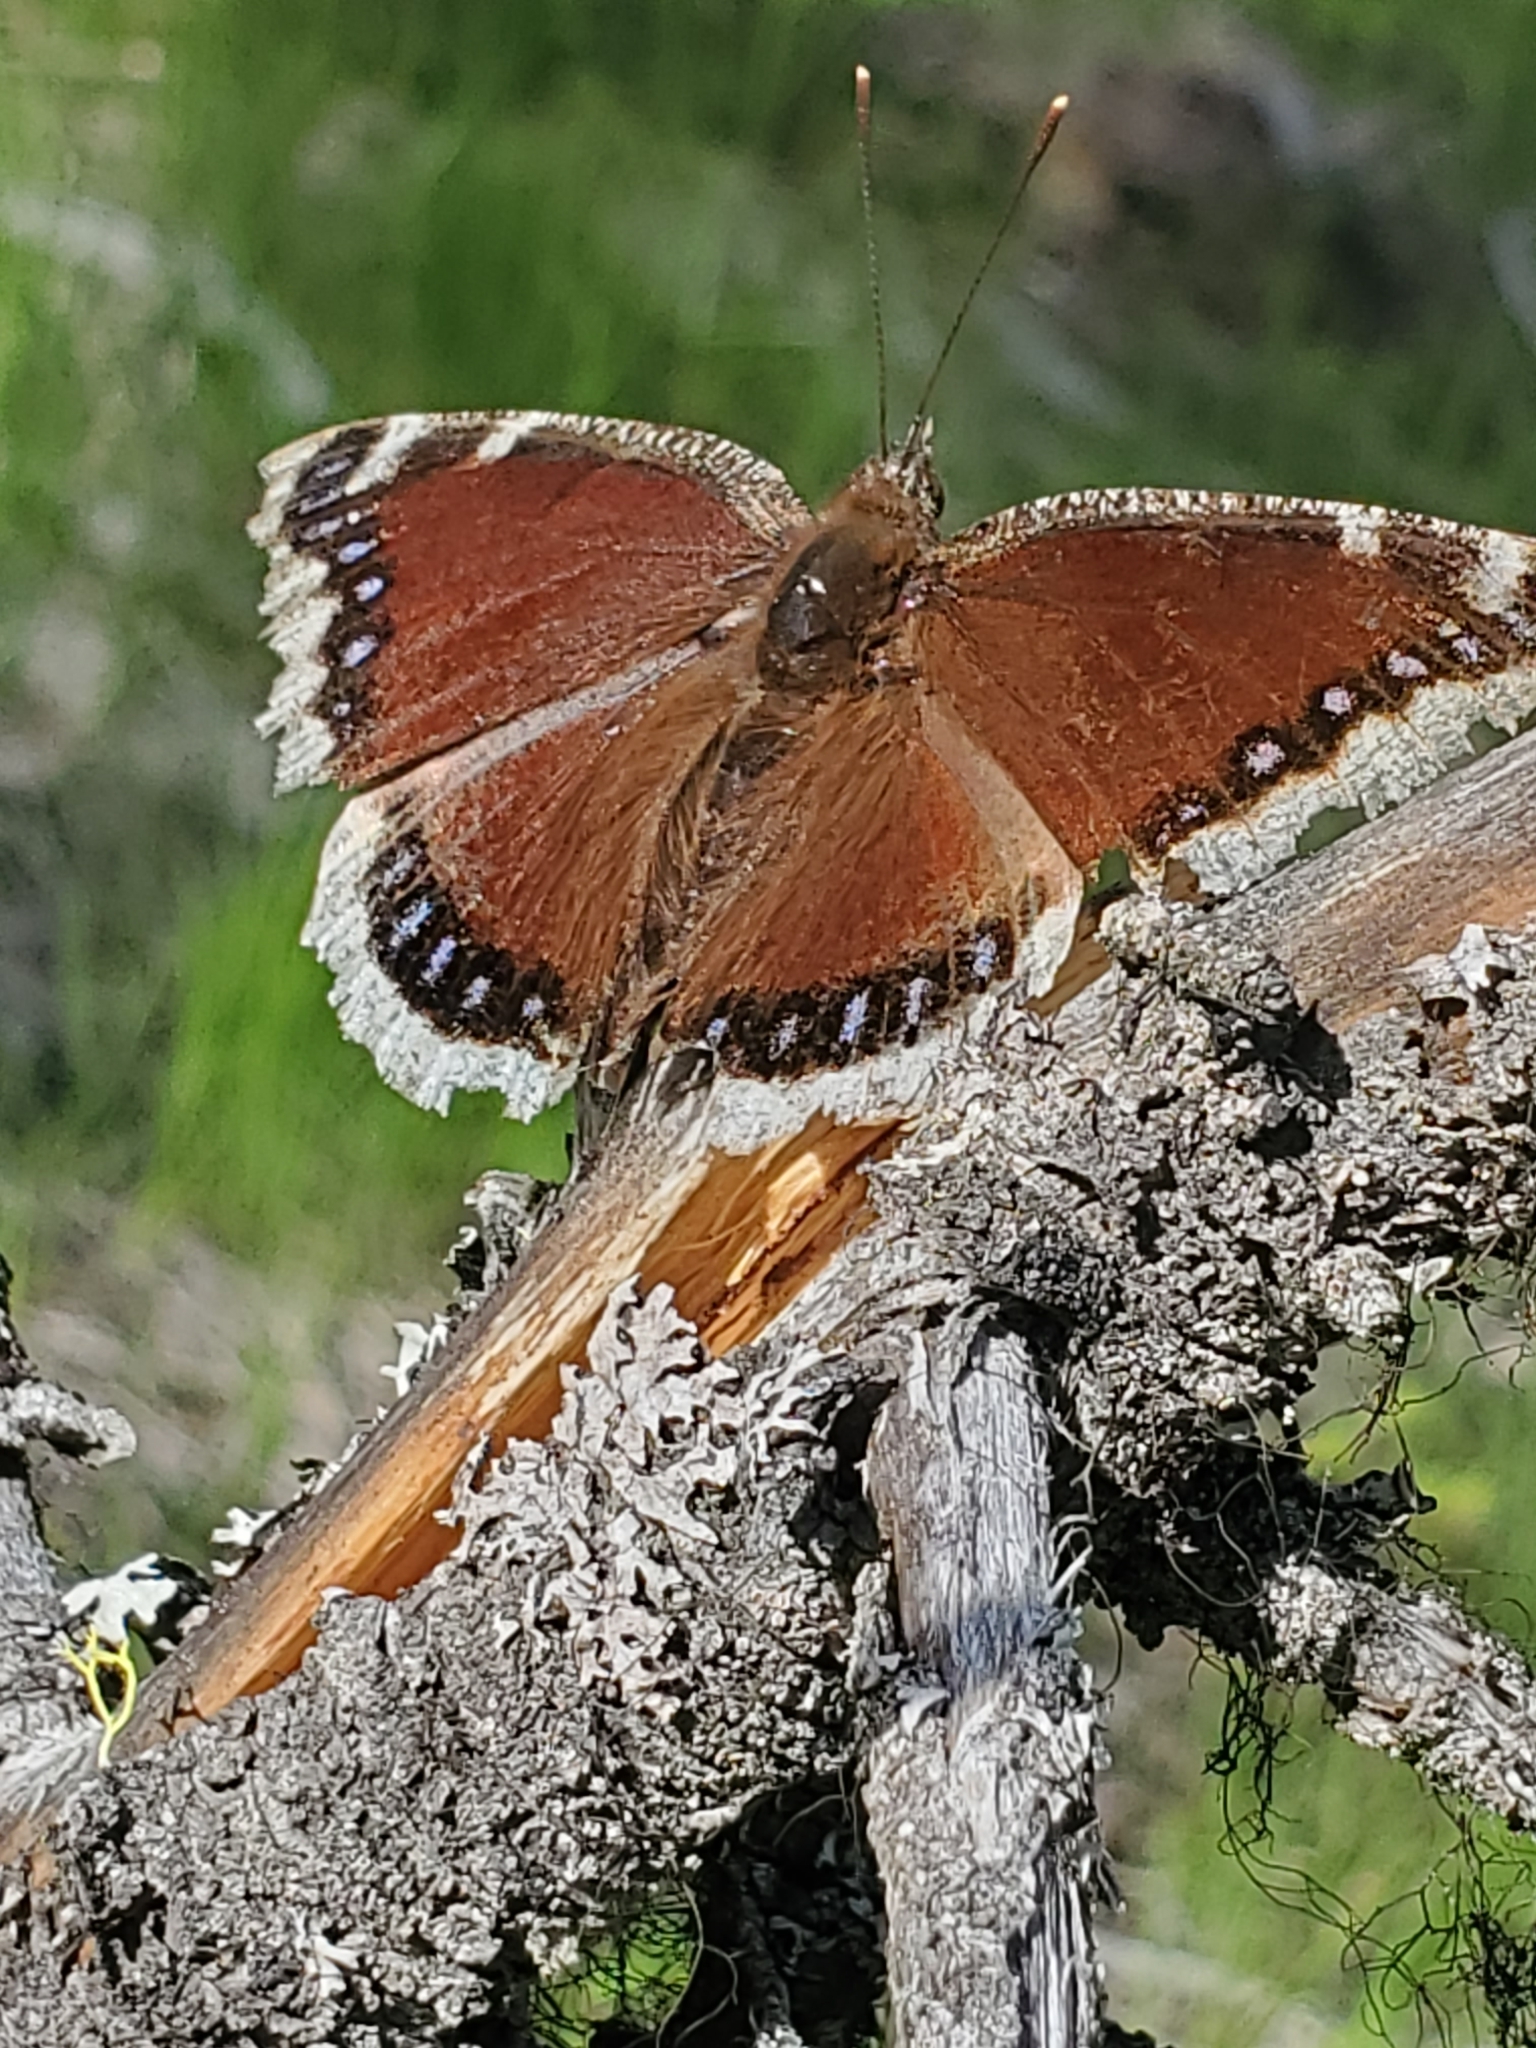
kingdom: Animalia
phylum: Arthropoda
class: Insecta
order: Lepidoptera
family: Nymphalidae
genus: Nymphalis
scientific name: Nymphalis antiopa
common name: Camberwell beauty
